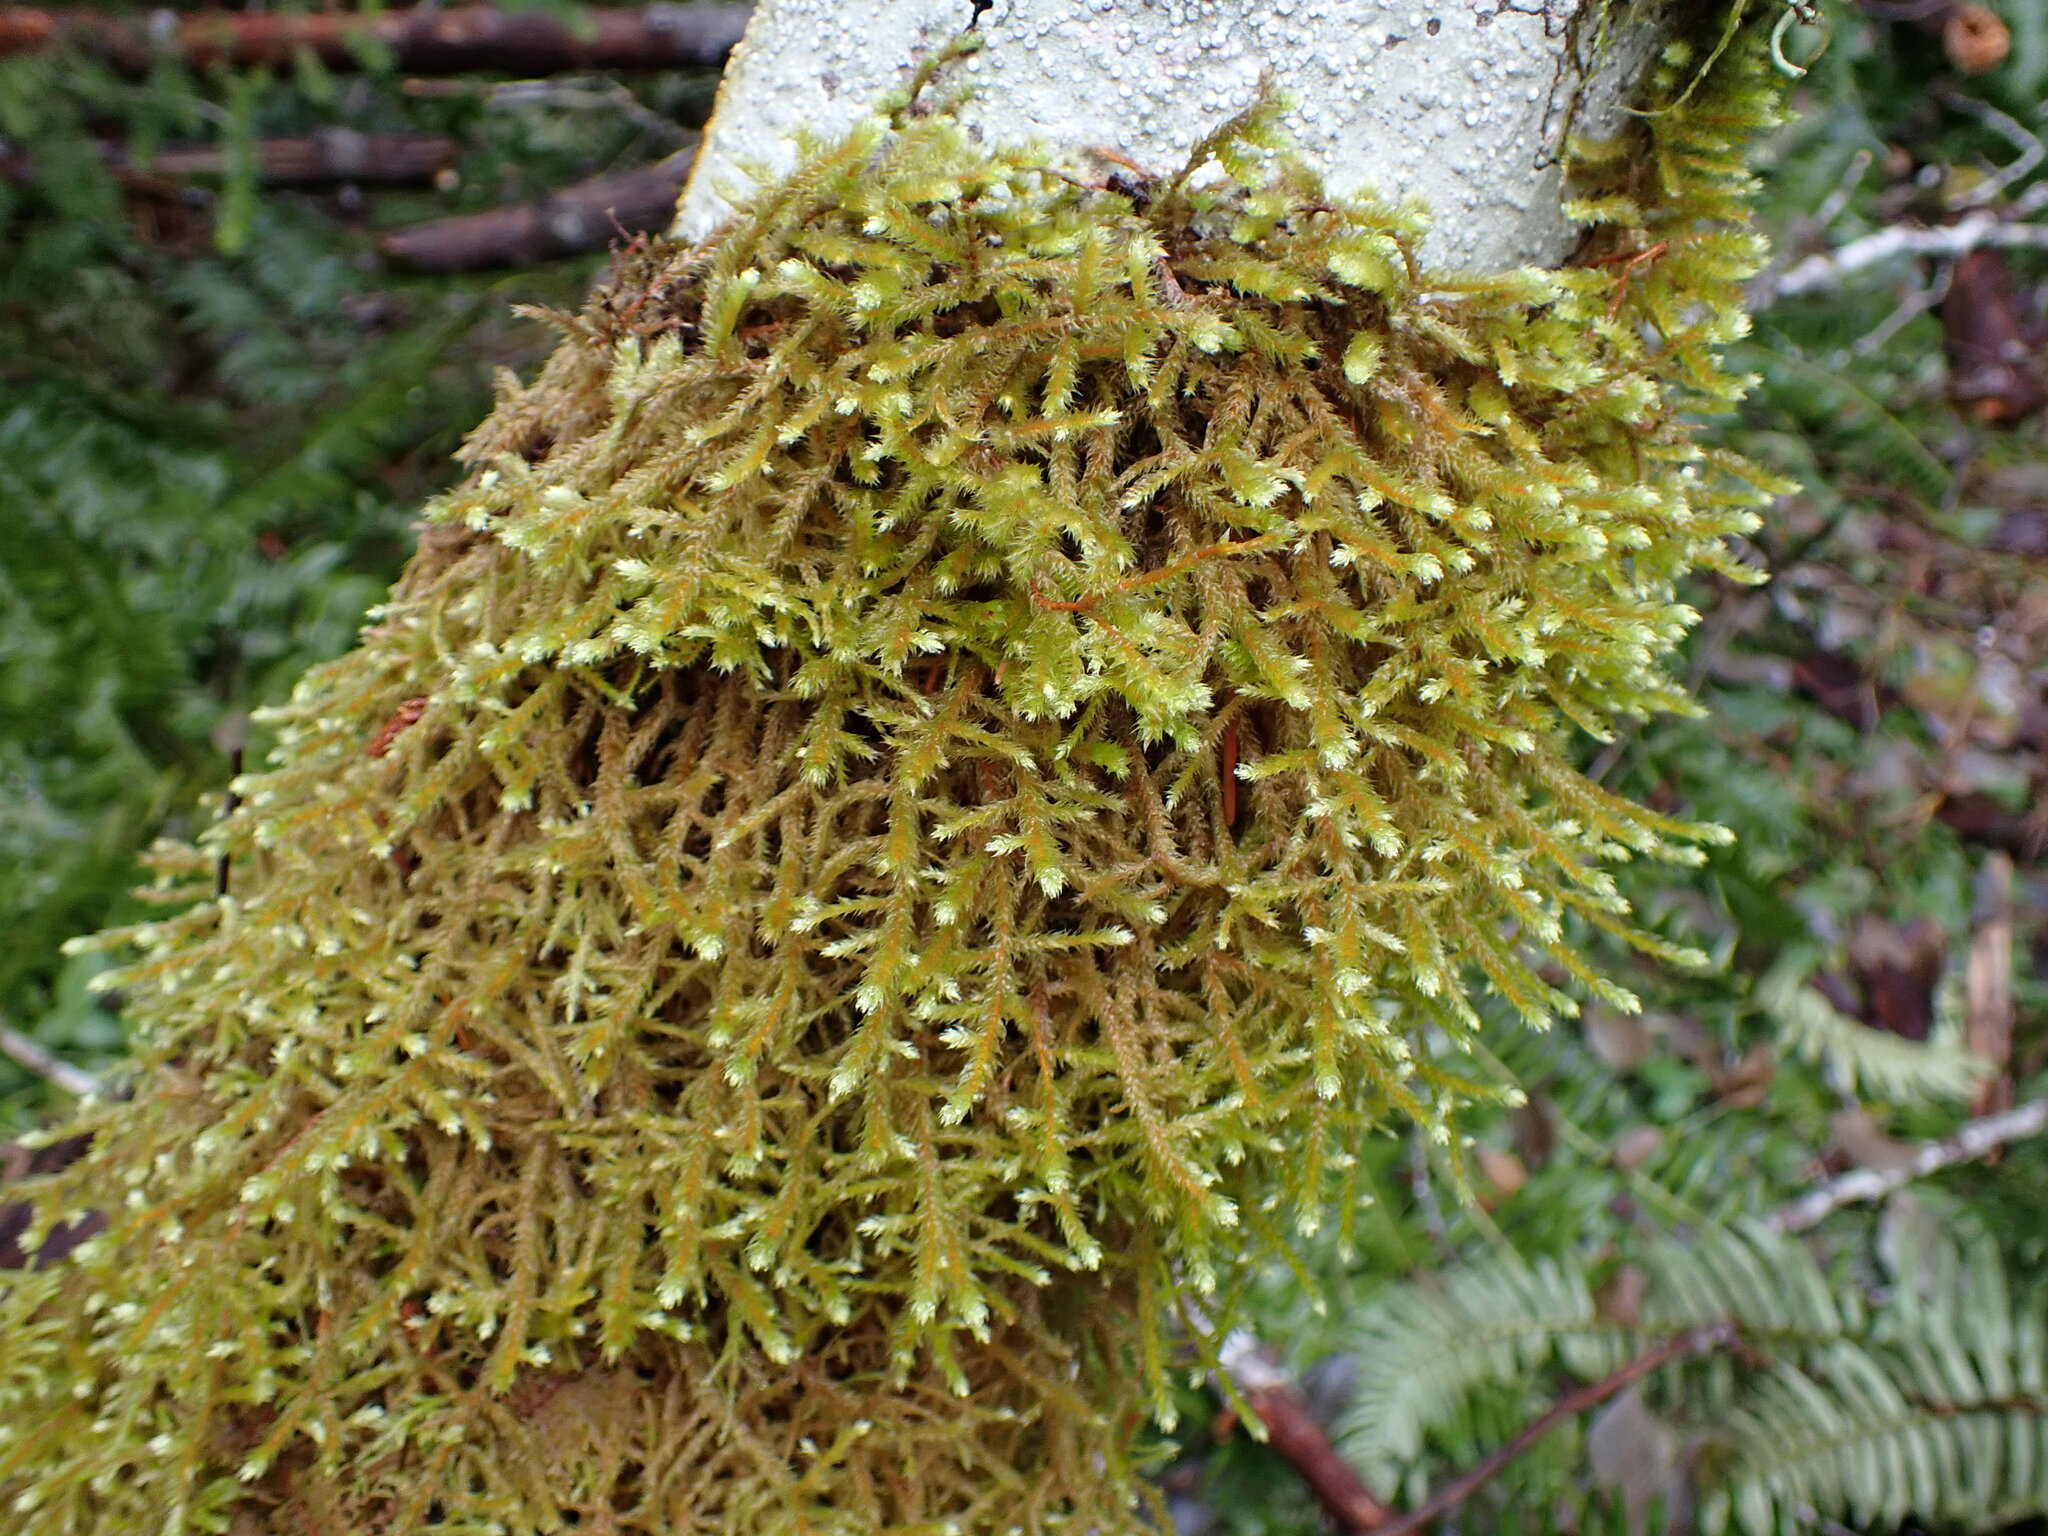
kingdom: Plantae
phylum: Bryophyta
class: Bryopsida
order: Hypnales
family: Antitrichiaceae
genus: Antitrichia
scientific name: Antitrichia curtipendula
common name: Pendulous wing-moss
